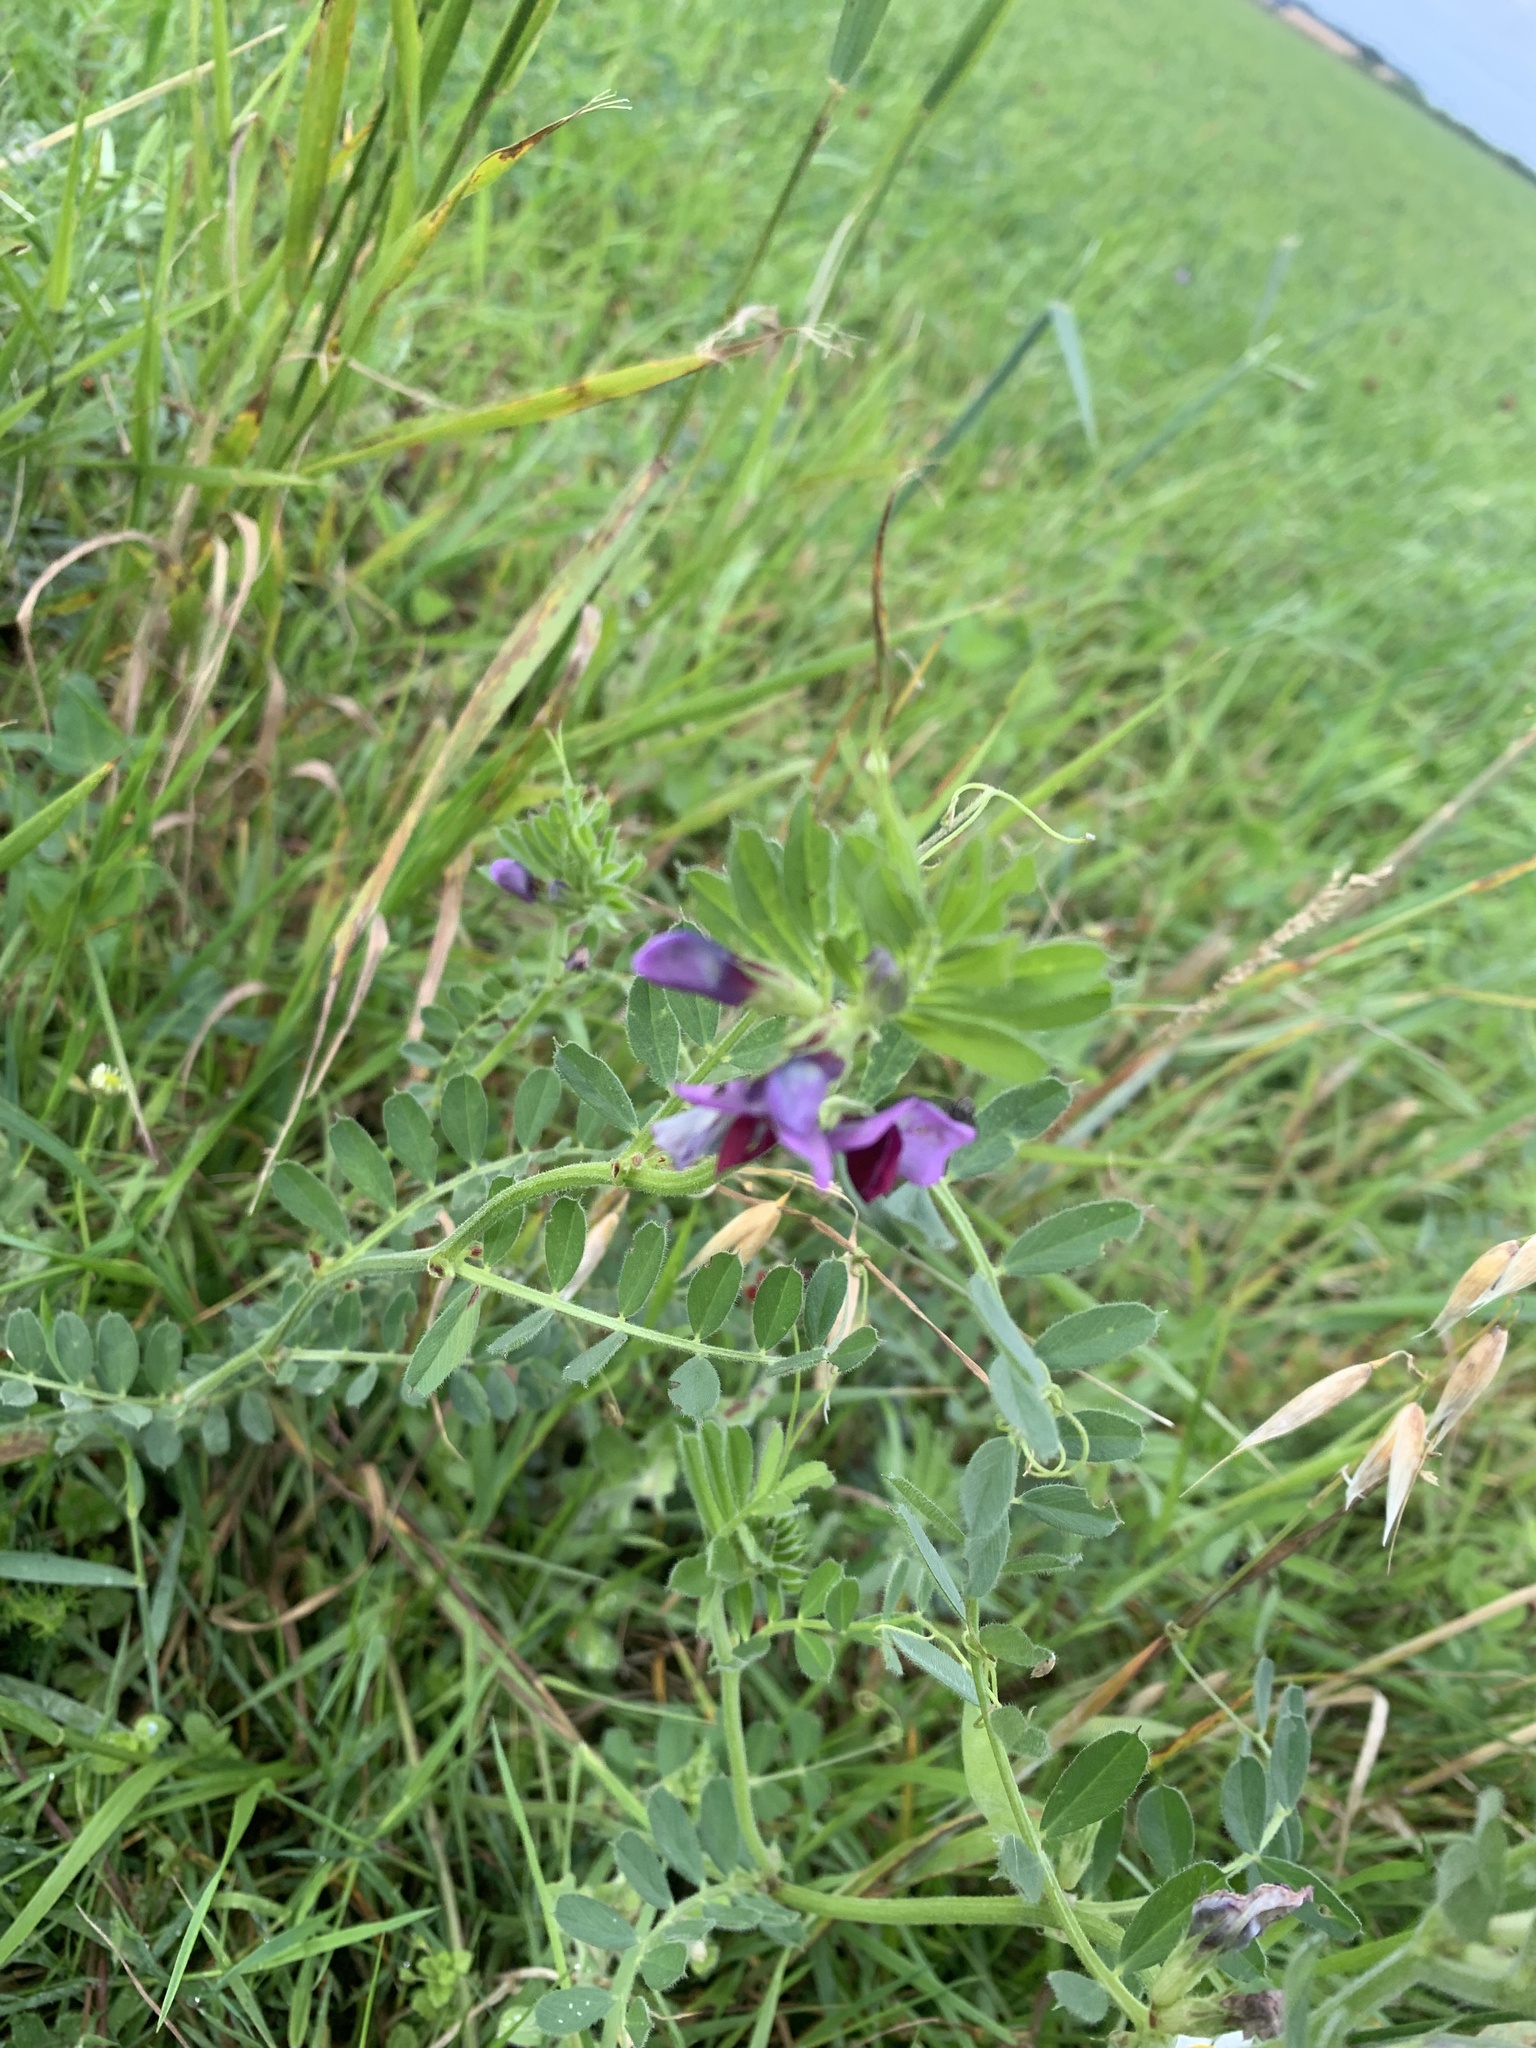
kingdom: Plantae
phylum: Tracheophyta
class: Magnoliopsida
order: Fabales
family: Fabaceae
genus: Vicia
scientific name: Vicia sativa
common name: Garden vetch
